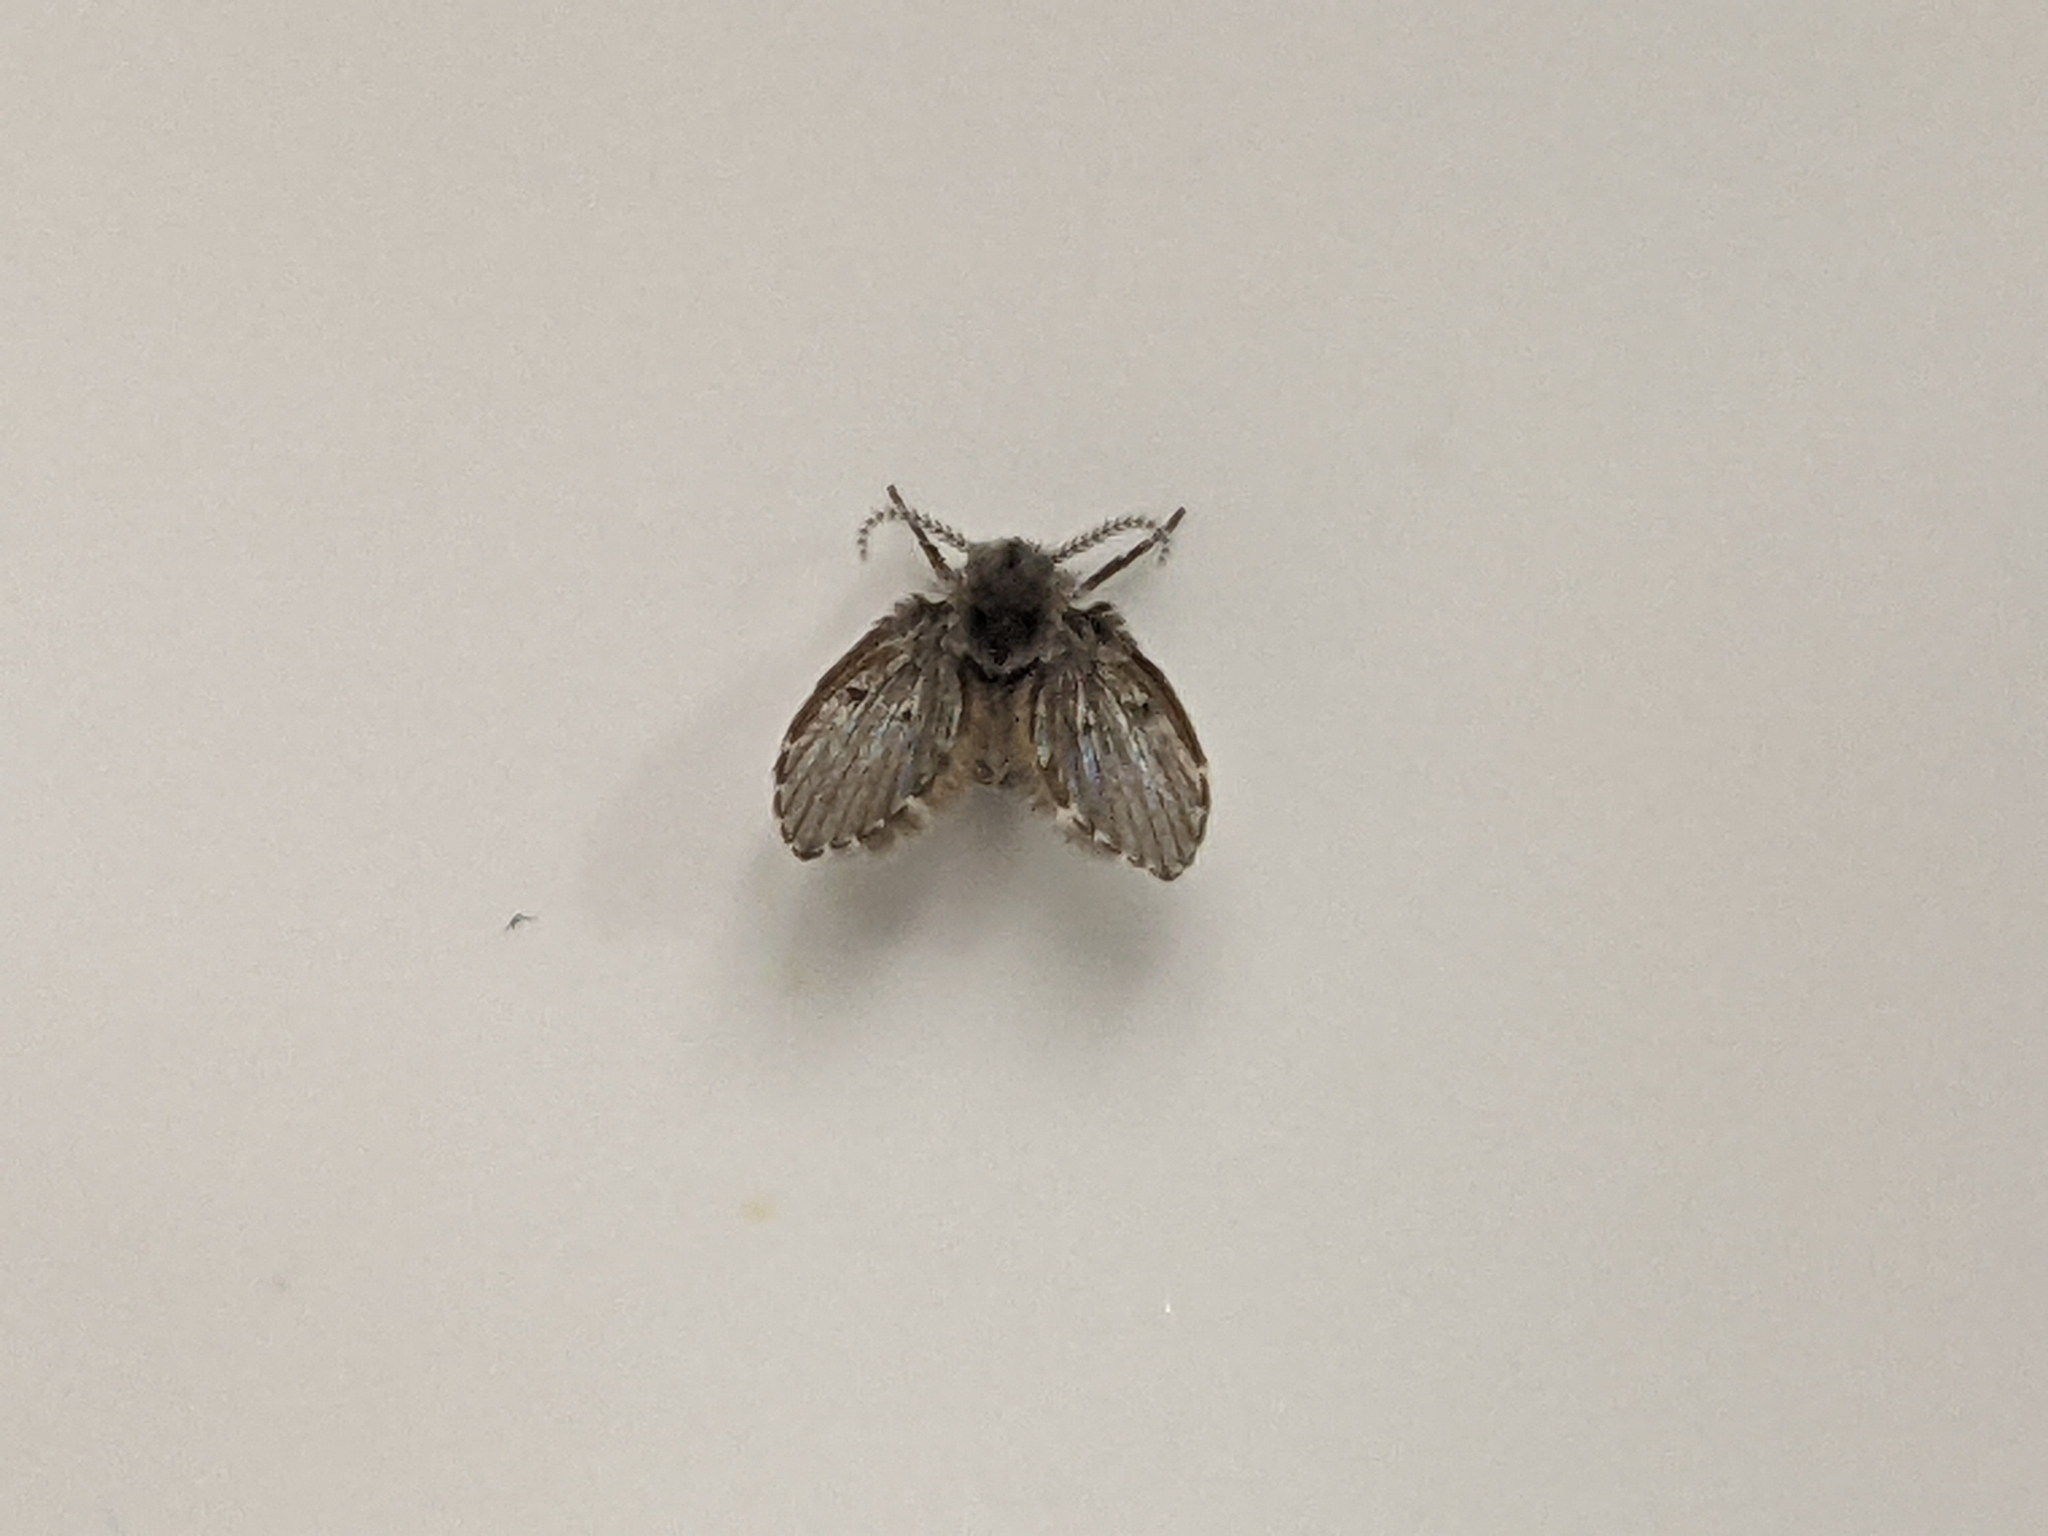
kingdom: Animalia
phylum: Arthropoda
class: Insecta
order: Diptera
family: Psychodidae
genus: Clogmia
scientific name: Clogmia albipunctatus
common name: White-spotted moth fly
